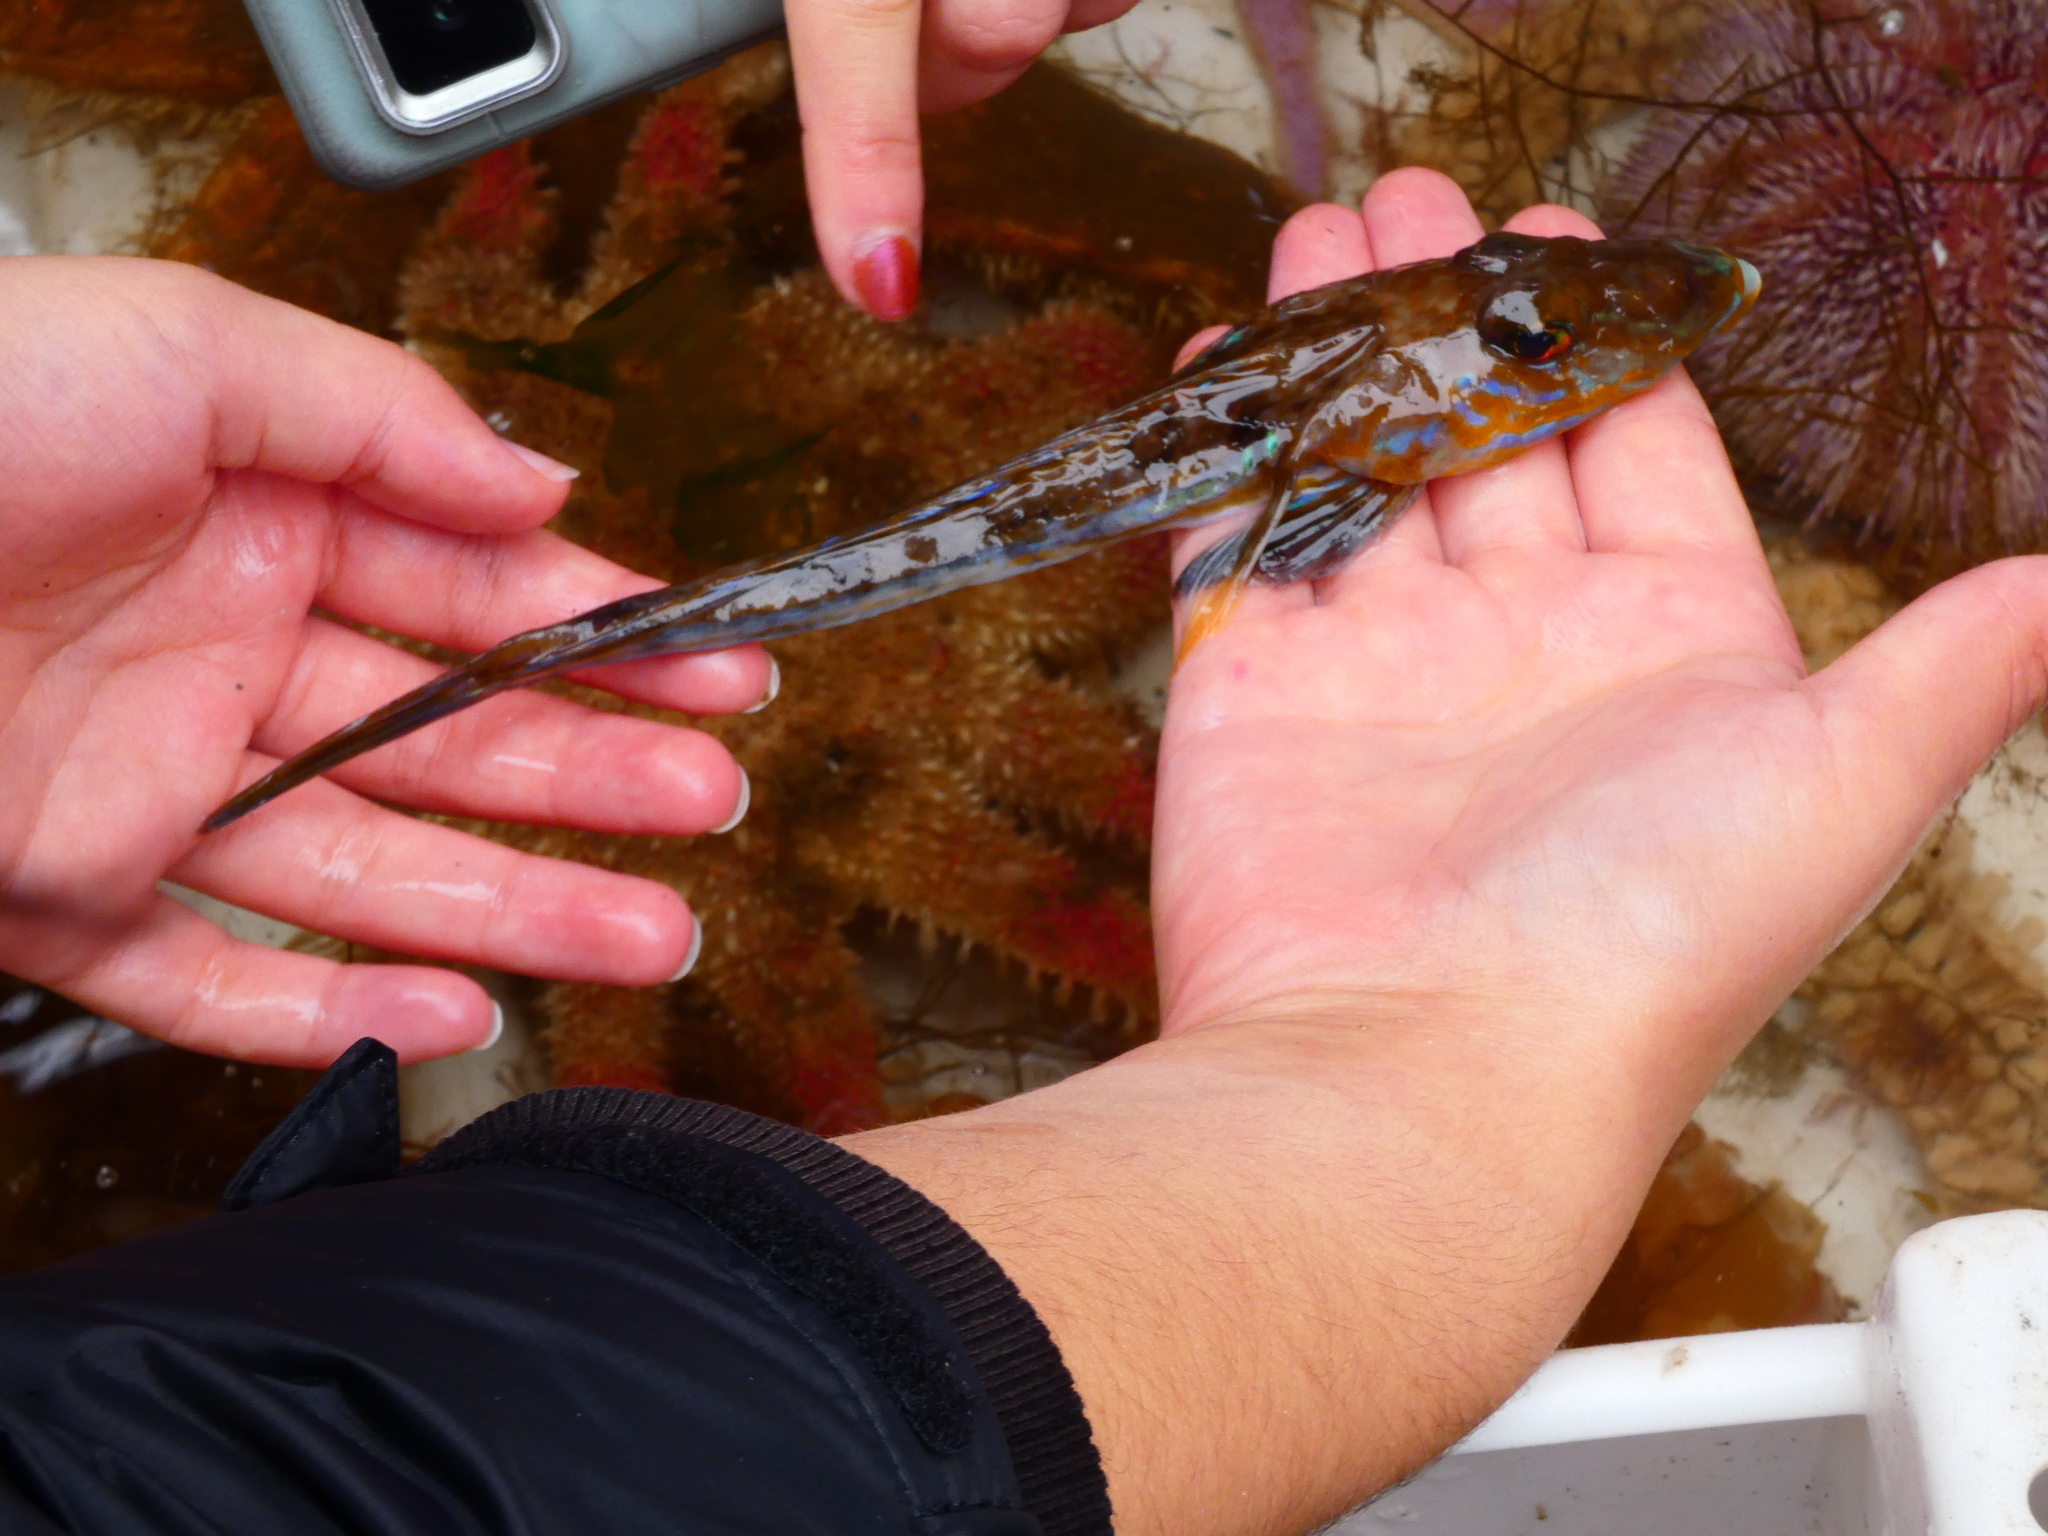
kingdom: Animalia
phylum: Chordata
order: Perciformes
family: Callionymidae
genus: Callionymus
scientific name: Callionymus lyra
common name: Dragonet
